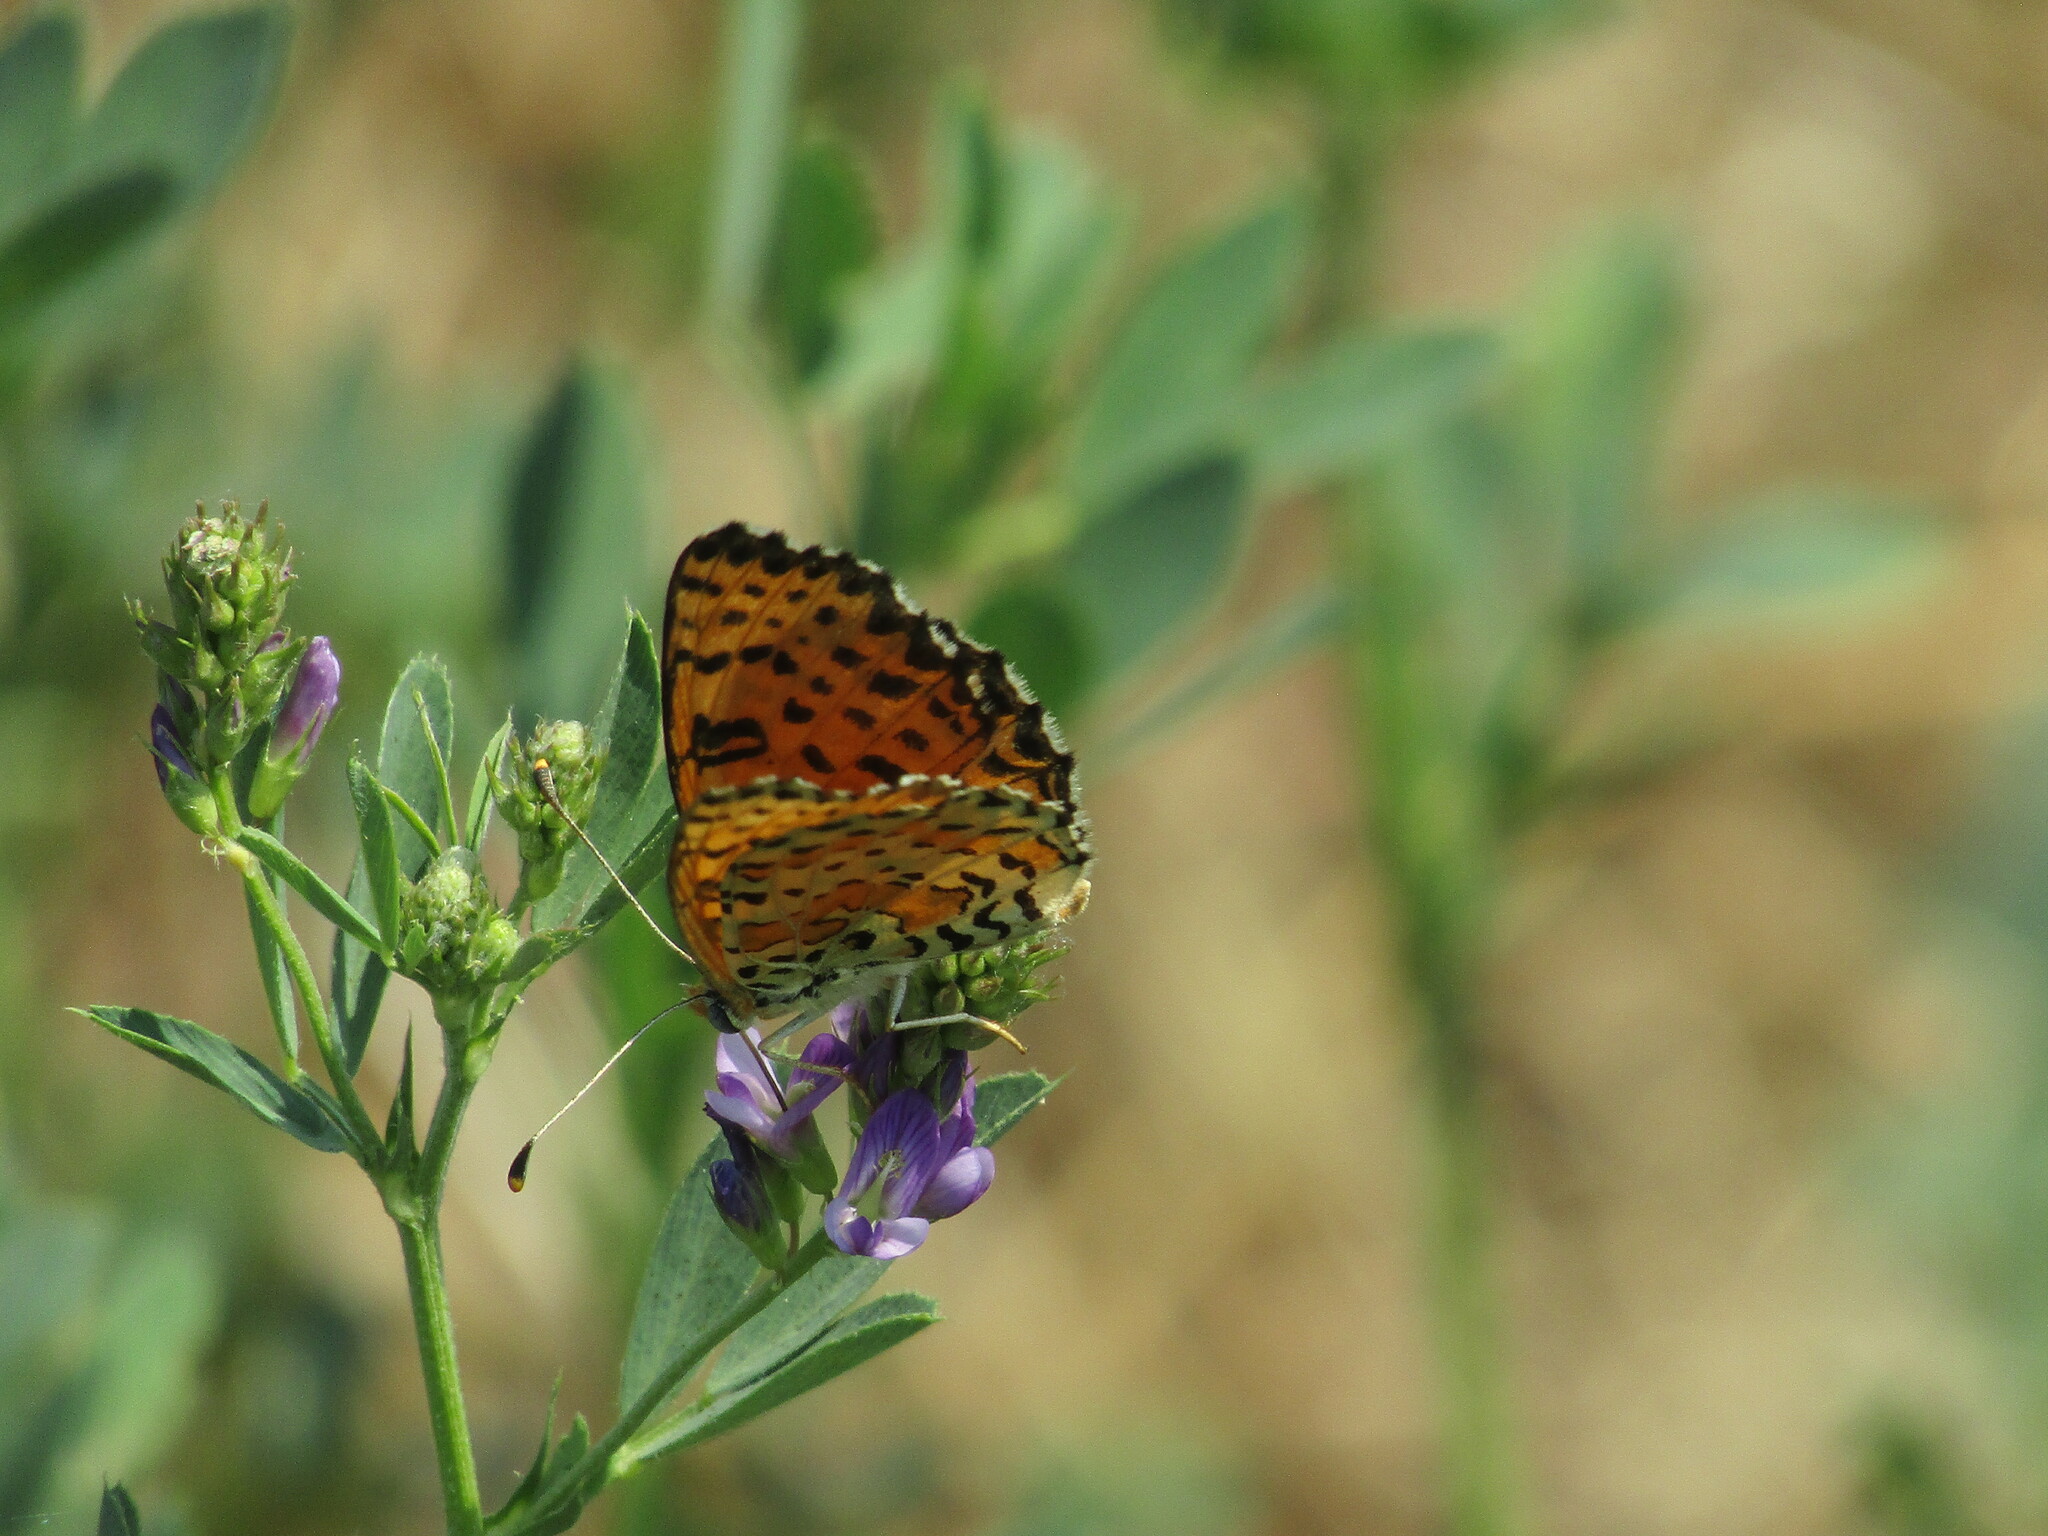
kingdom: Animalia
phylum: Arthropoda
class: Insecta
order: Lepidoptera
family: Nymphalidae
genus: Melitaea
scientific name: Melitaea didyma
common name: Spotted fritillary
